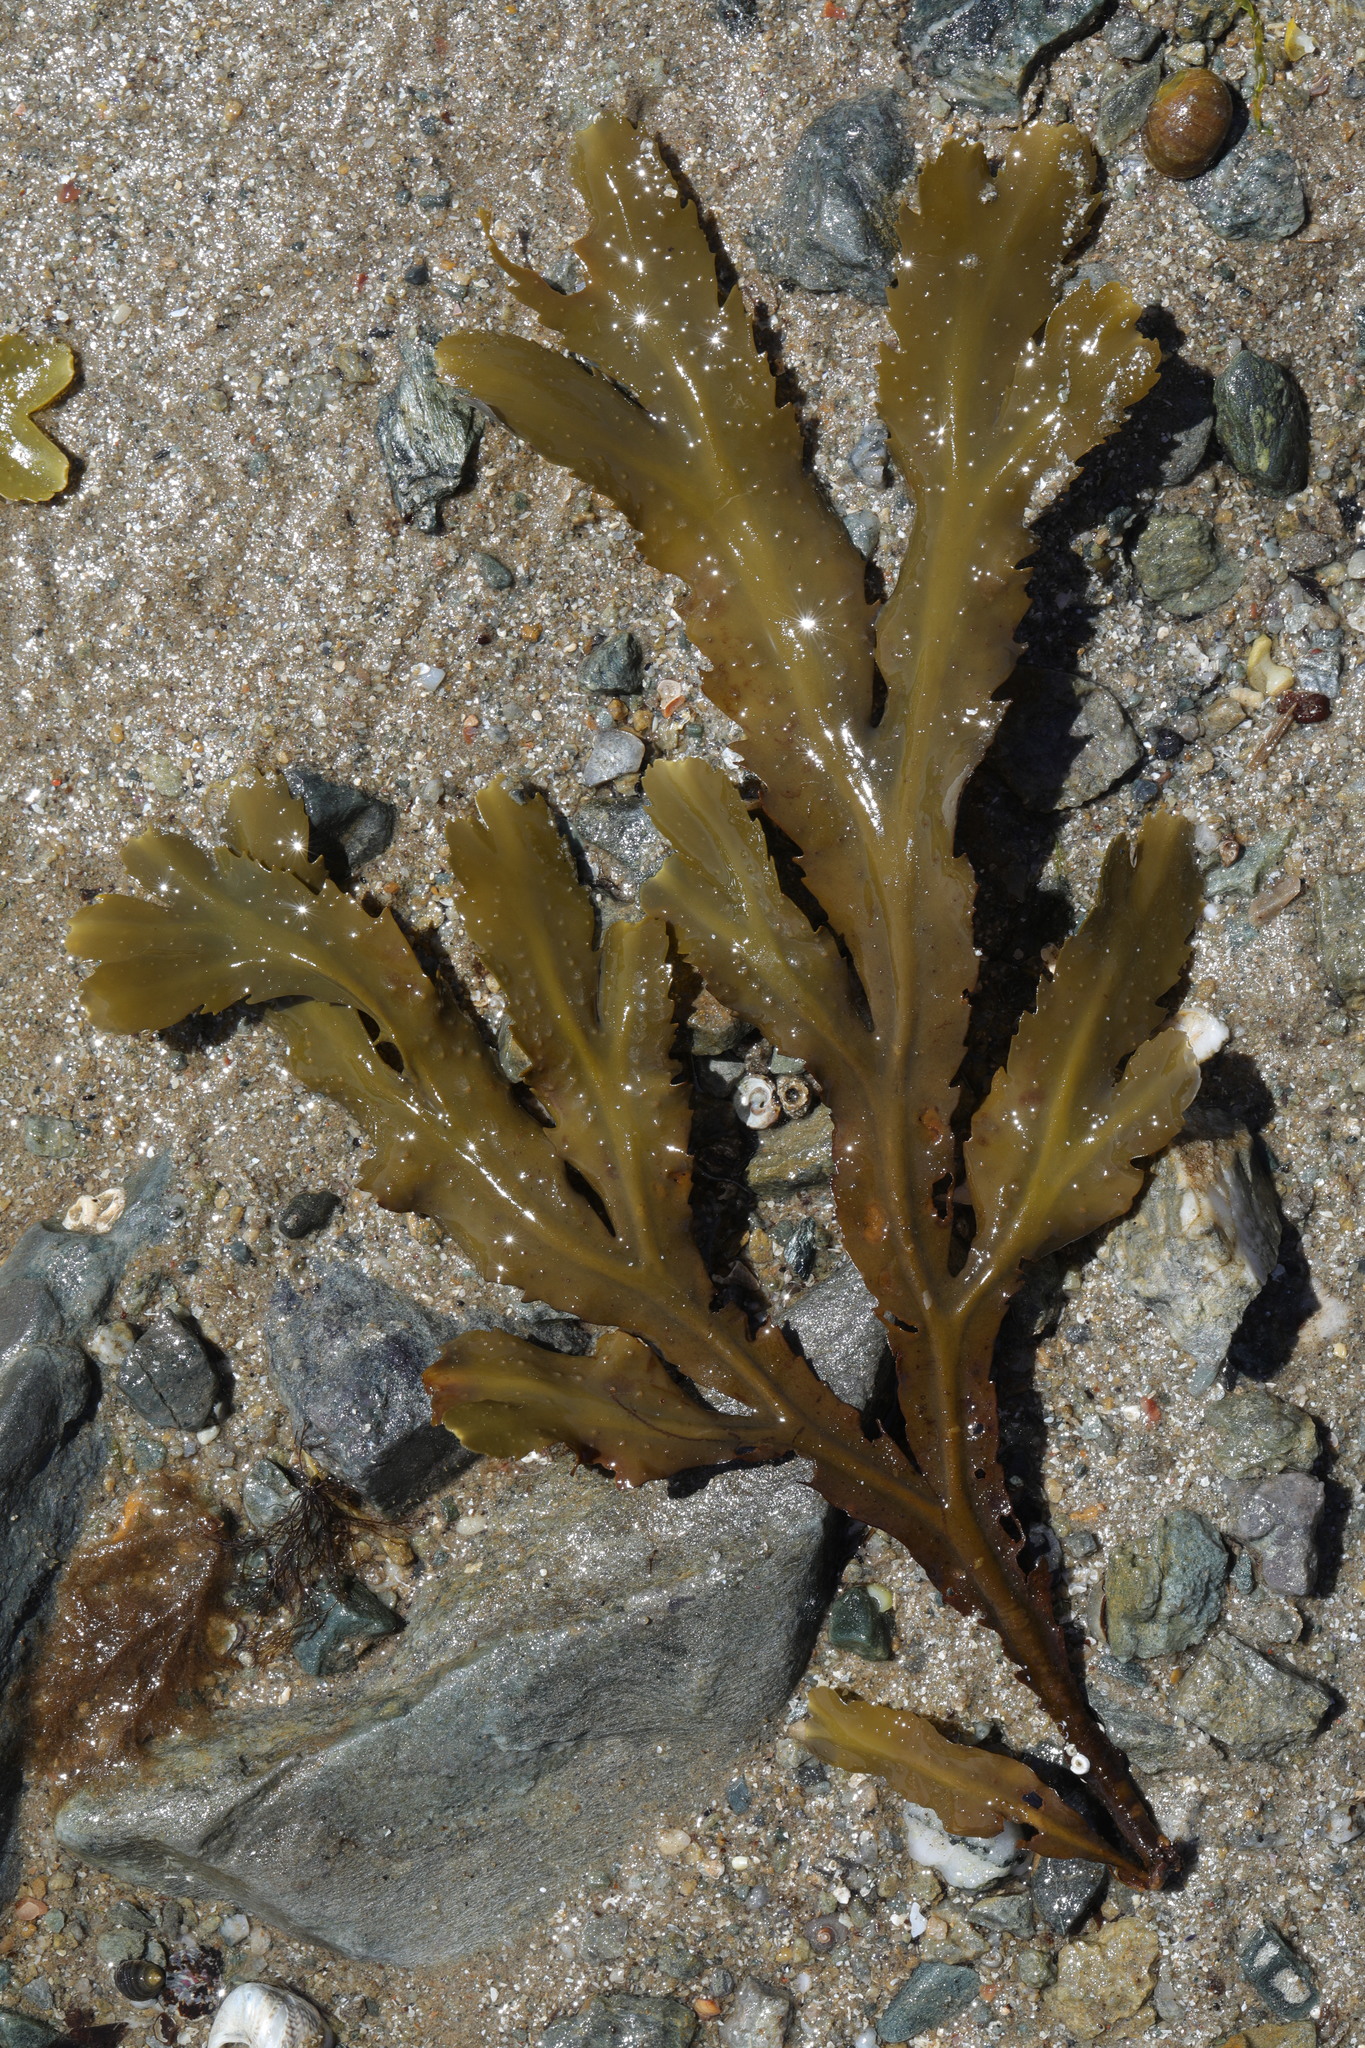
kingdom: Chromista
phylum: Ochrophyta
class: Phaeophyceae
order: Fucales
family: Fucaceae
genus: Fucus
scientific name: Fucus serratus
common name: Toothed wrack
